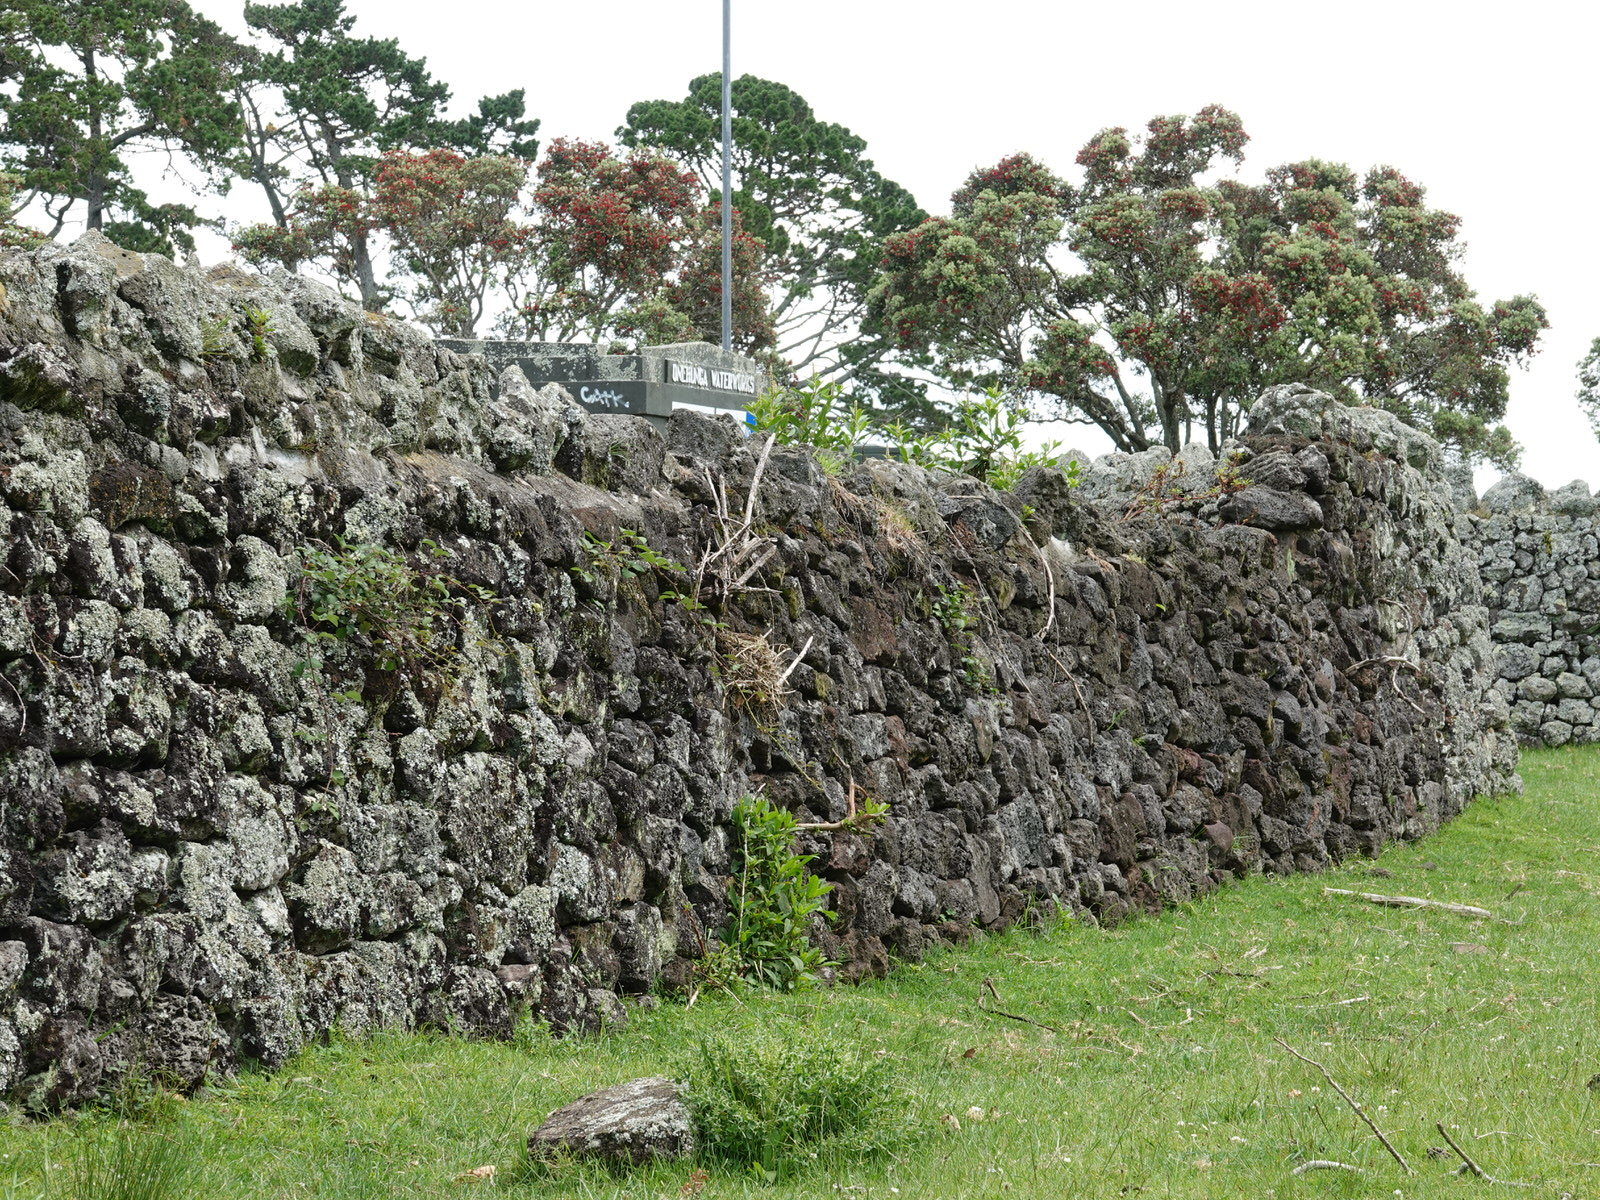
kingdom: Animalia
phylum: Chordata
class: Aves
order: Passeriformes
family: Turdidae
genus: Turdus
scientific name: Turdus merula
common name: Common blackbird
